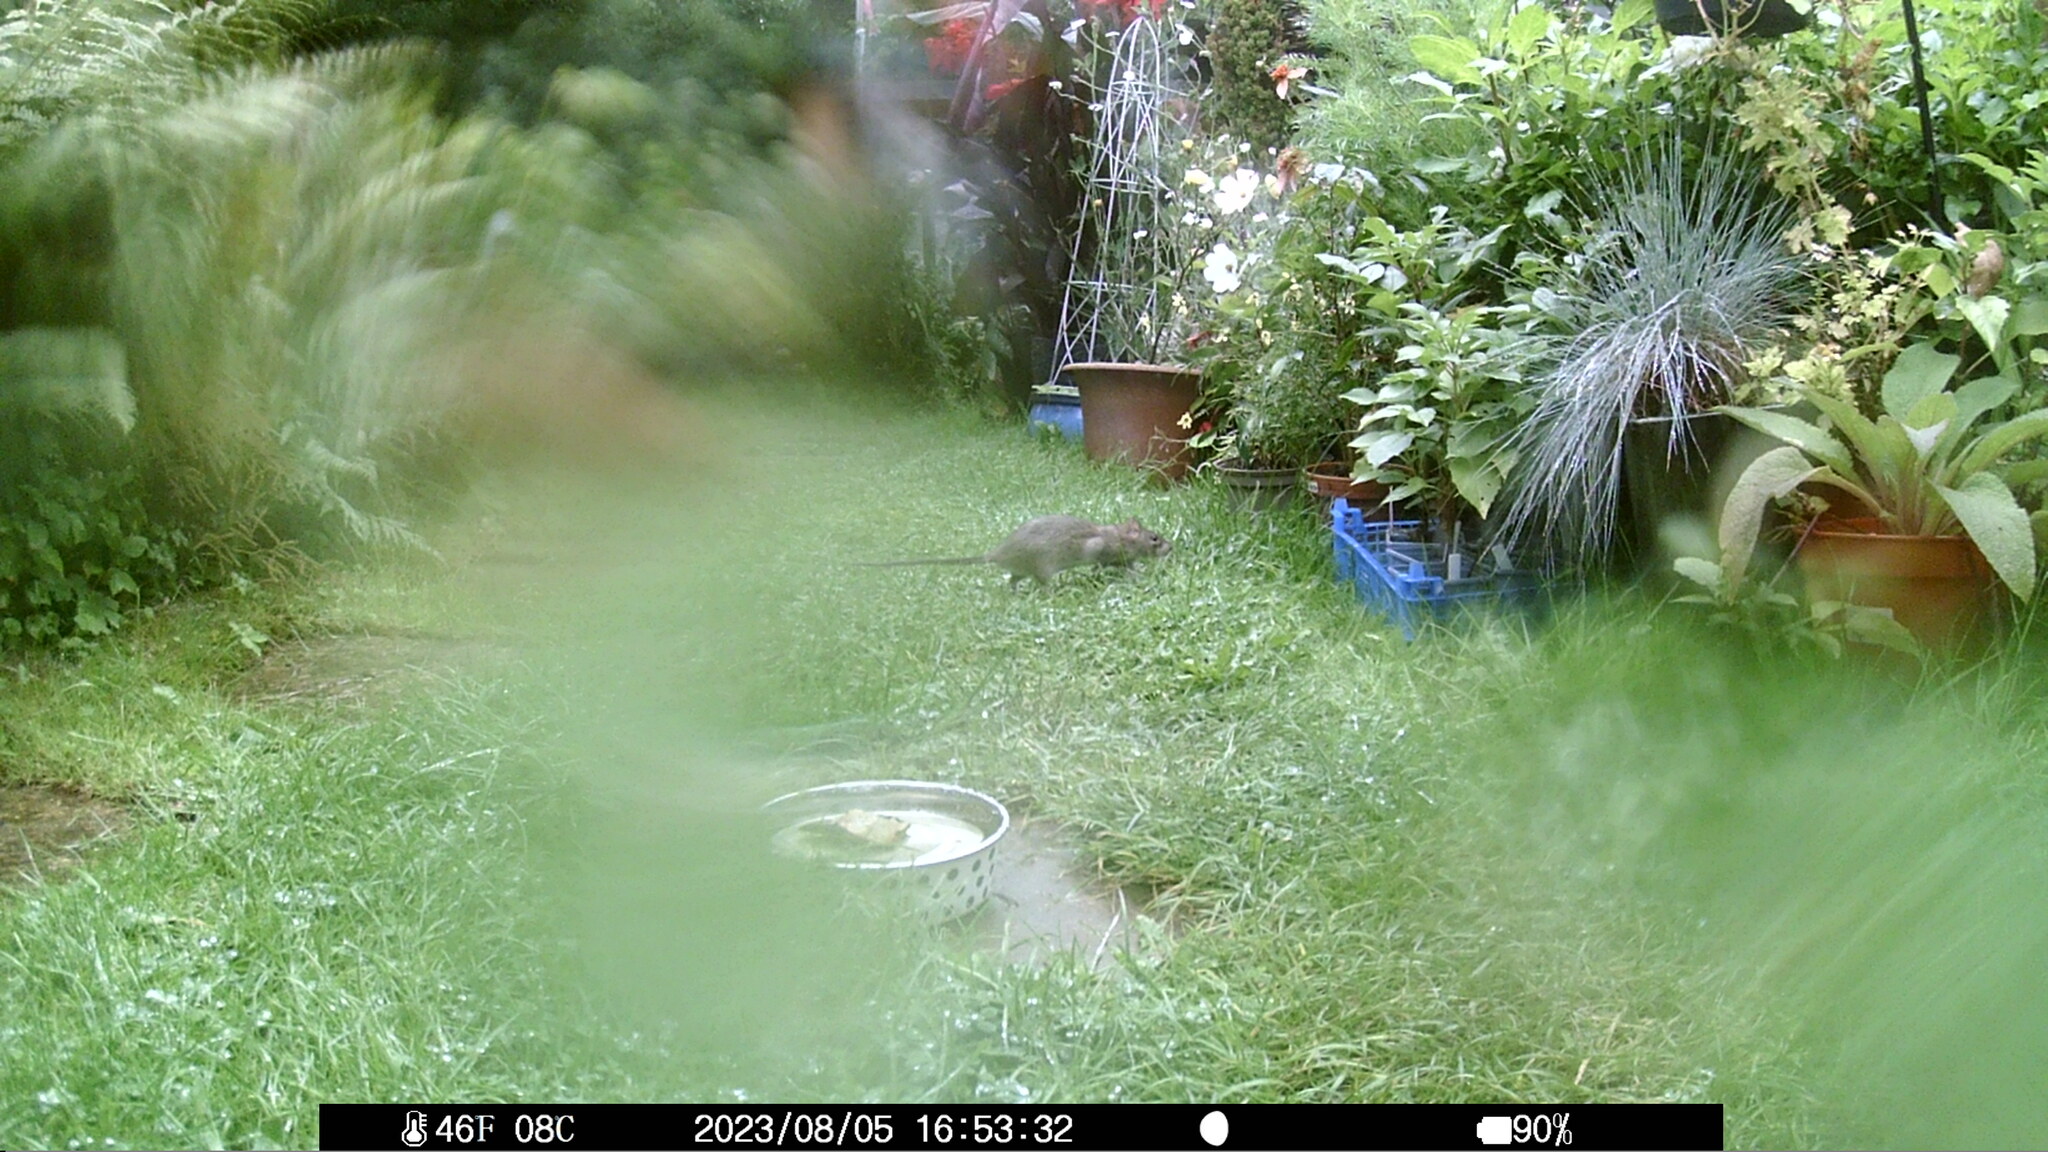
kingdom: Animalia
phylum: Chordata
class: Mammalia
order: Rodentia
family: Muridae
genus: Rattus
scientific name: Rattus norvegicus
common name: Brown rat
